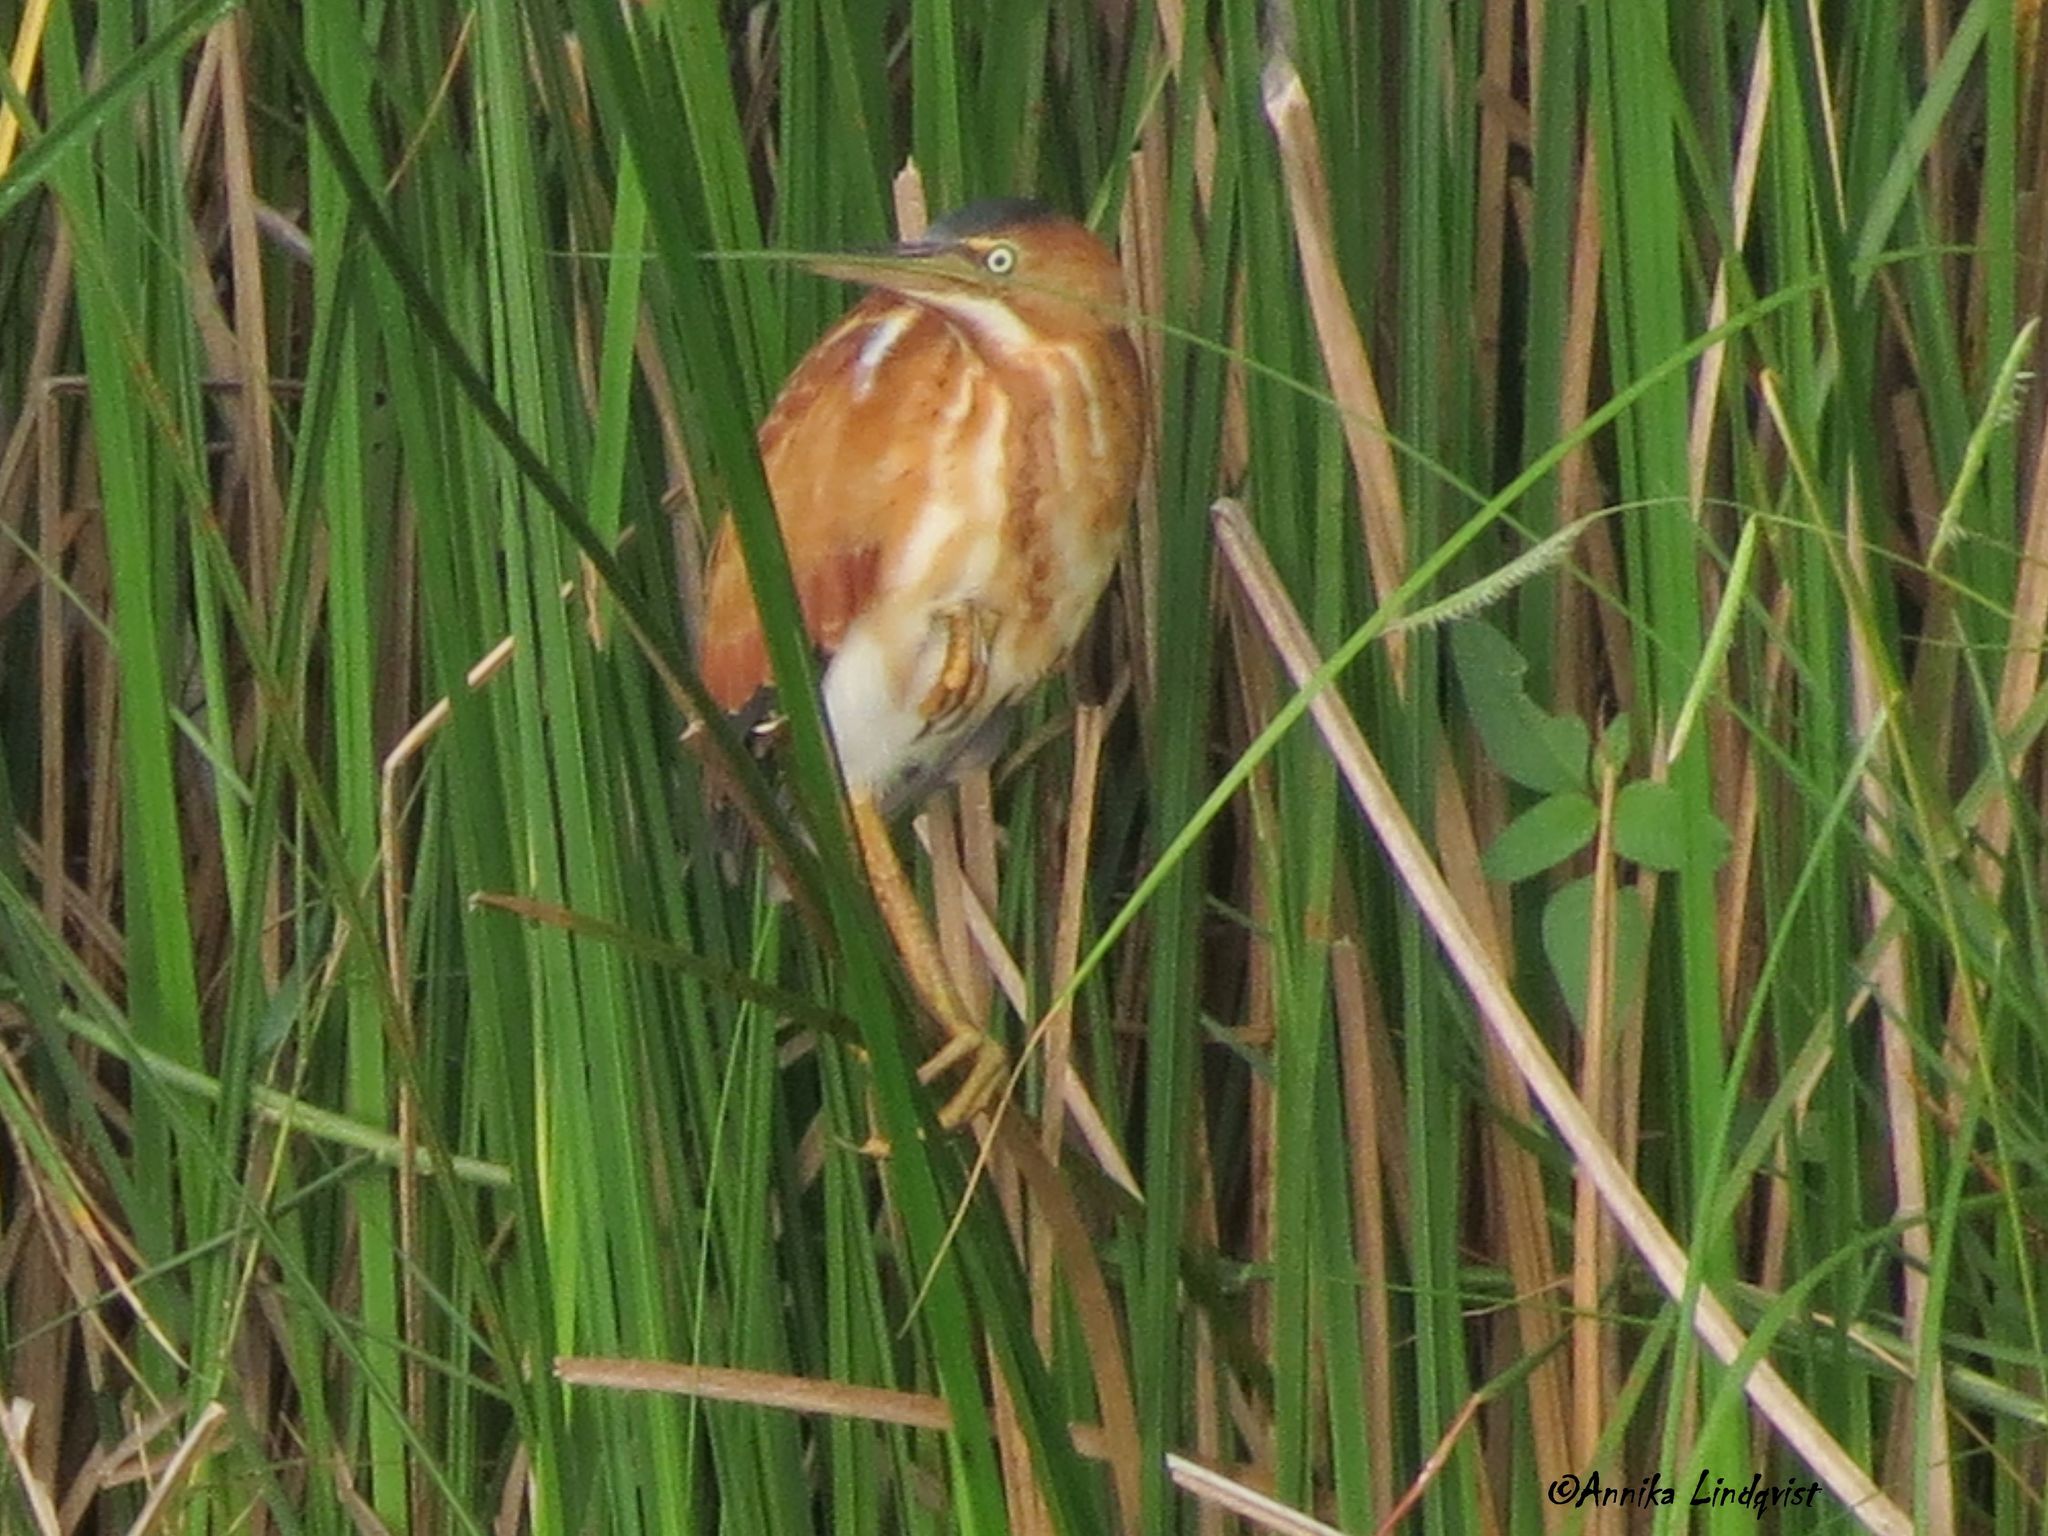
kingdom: Animalia
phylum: Chordata
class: Aves
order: Pelecaniformes
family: Ardeidae
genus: Ixobrychus
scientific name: Ixobrychus exilis
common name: Least bittern
